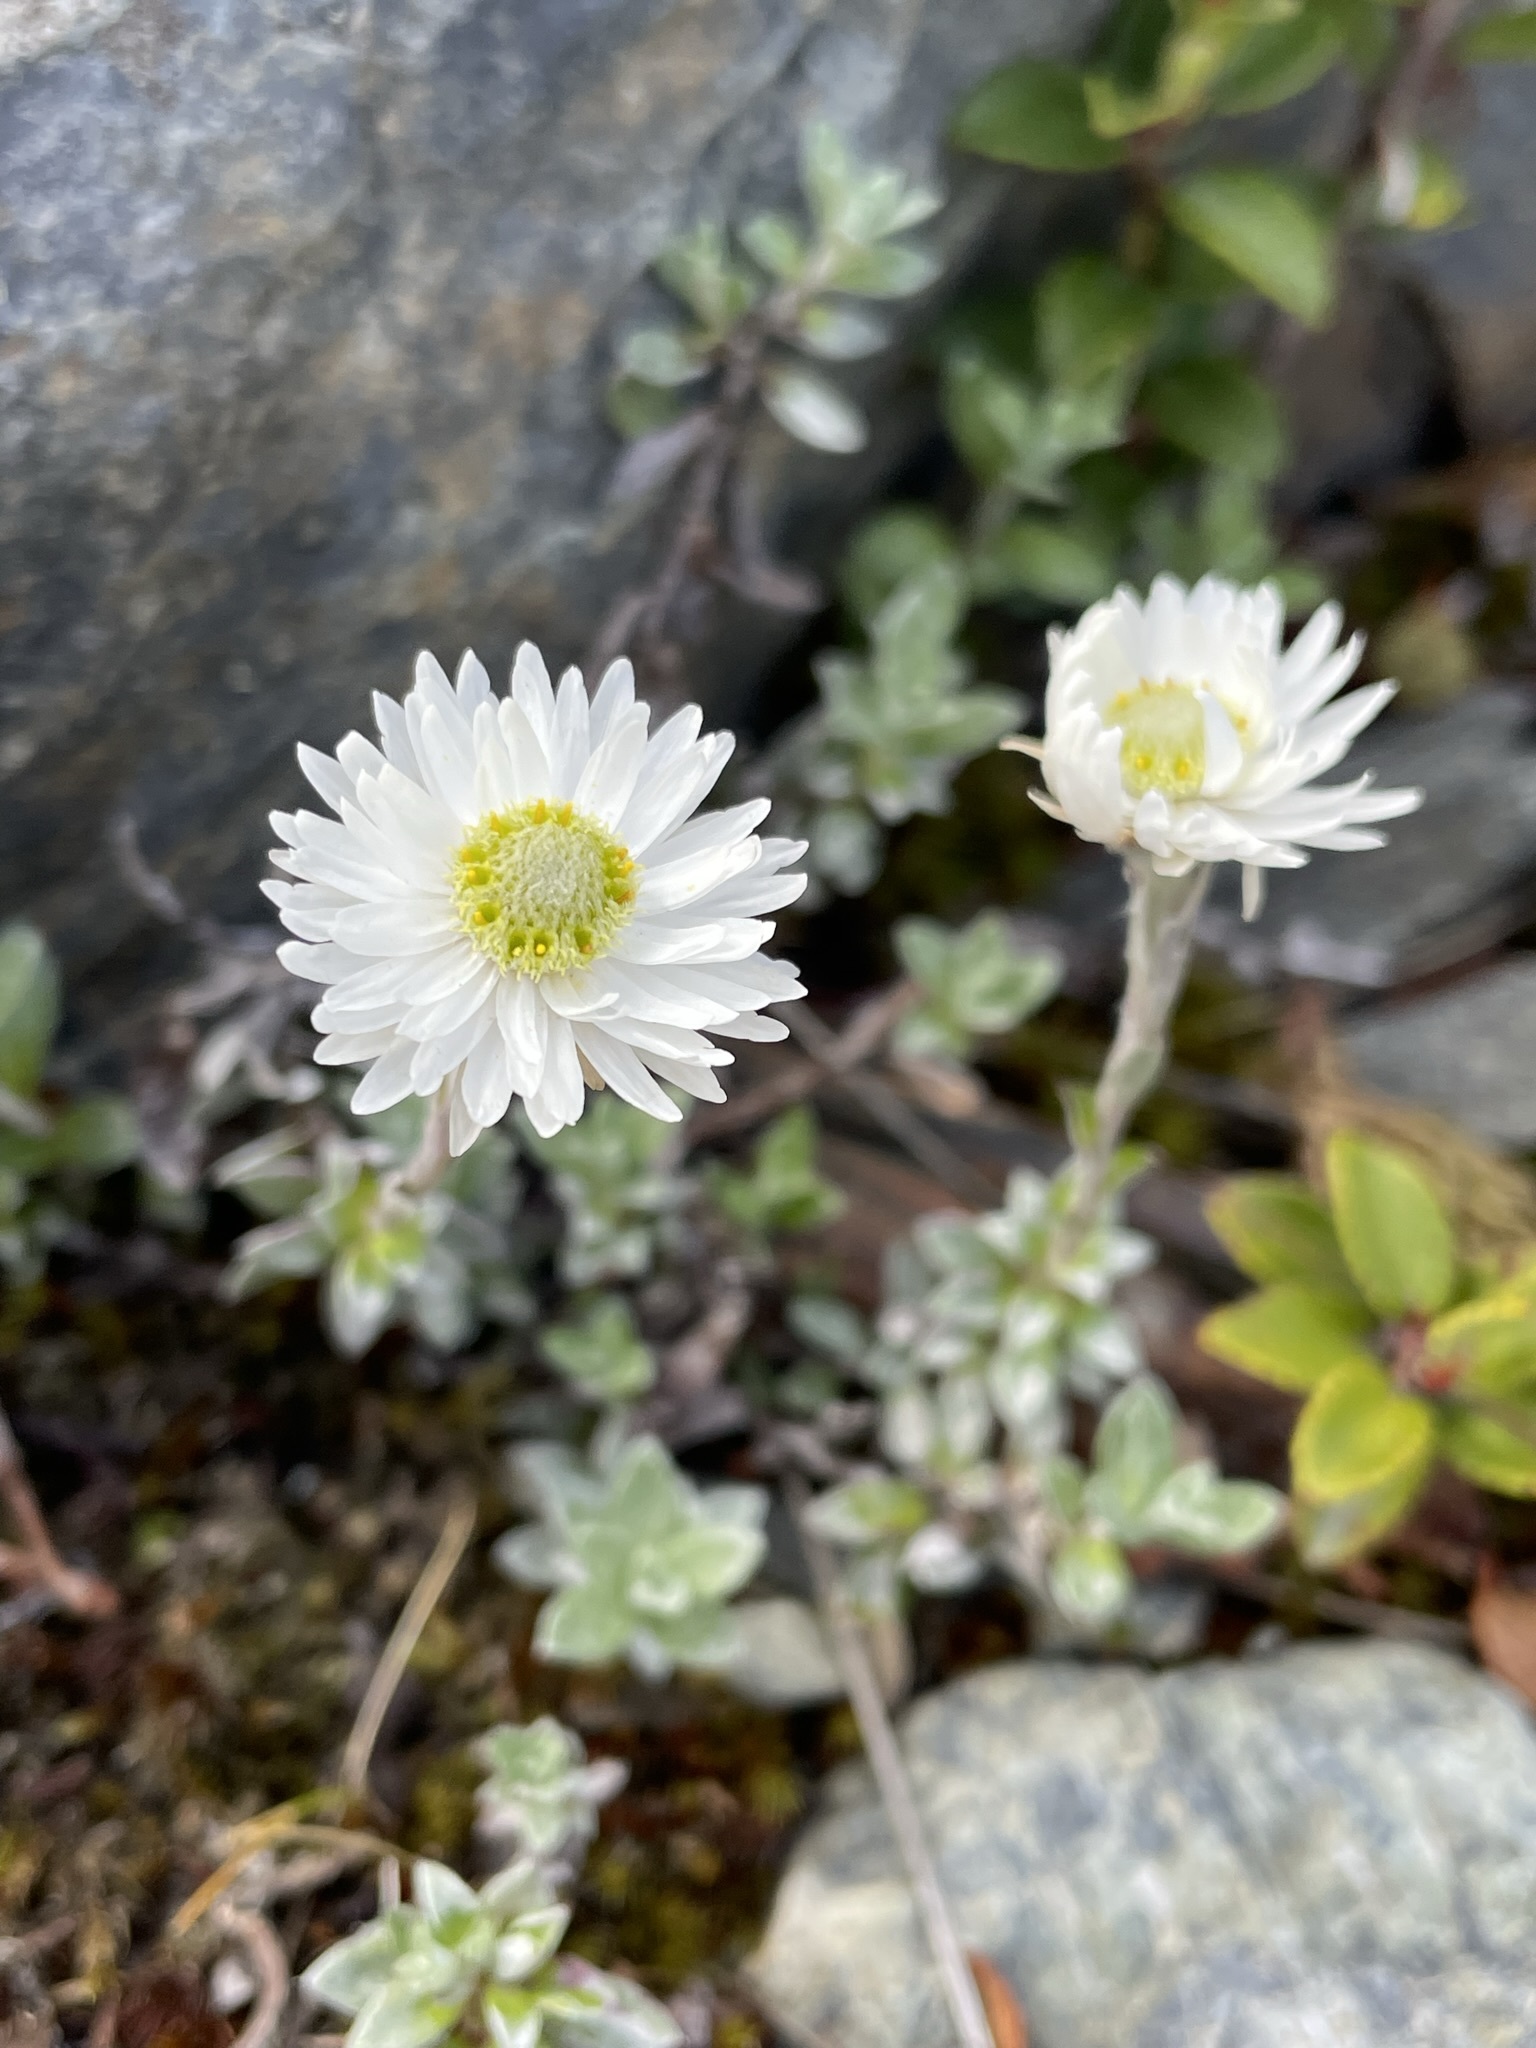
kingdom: Plantae
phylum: Tracheophyta
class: Magnoliopsida
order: Asterales
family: Asteraceae
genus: Anaphalioides
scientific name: Anaphalioides bellidioides
